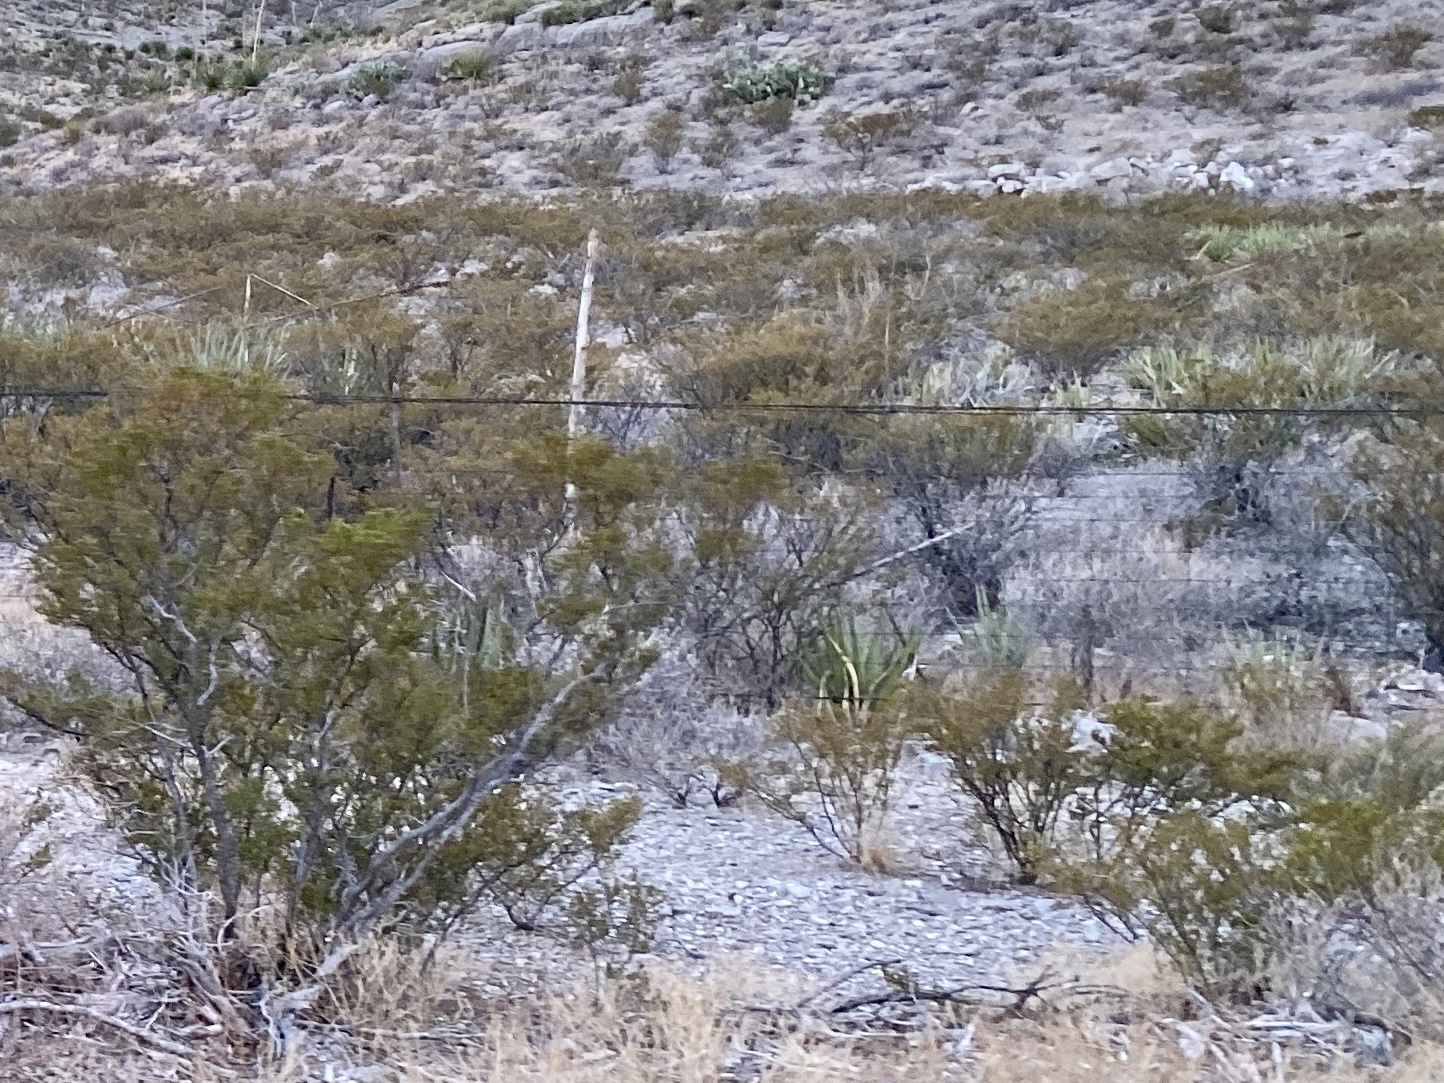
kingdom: Plantae
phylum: Tracheophyta
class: Magnoliopsida
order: Zygophyllales
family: Zygophyllaceae
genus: Larrea
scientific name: Larrea tridentata
